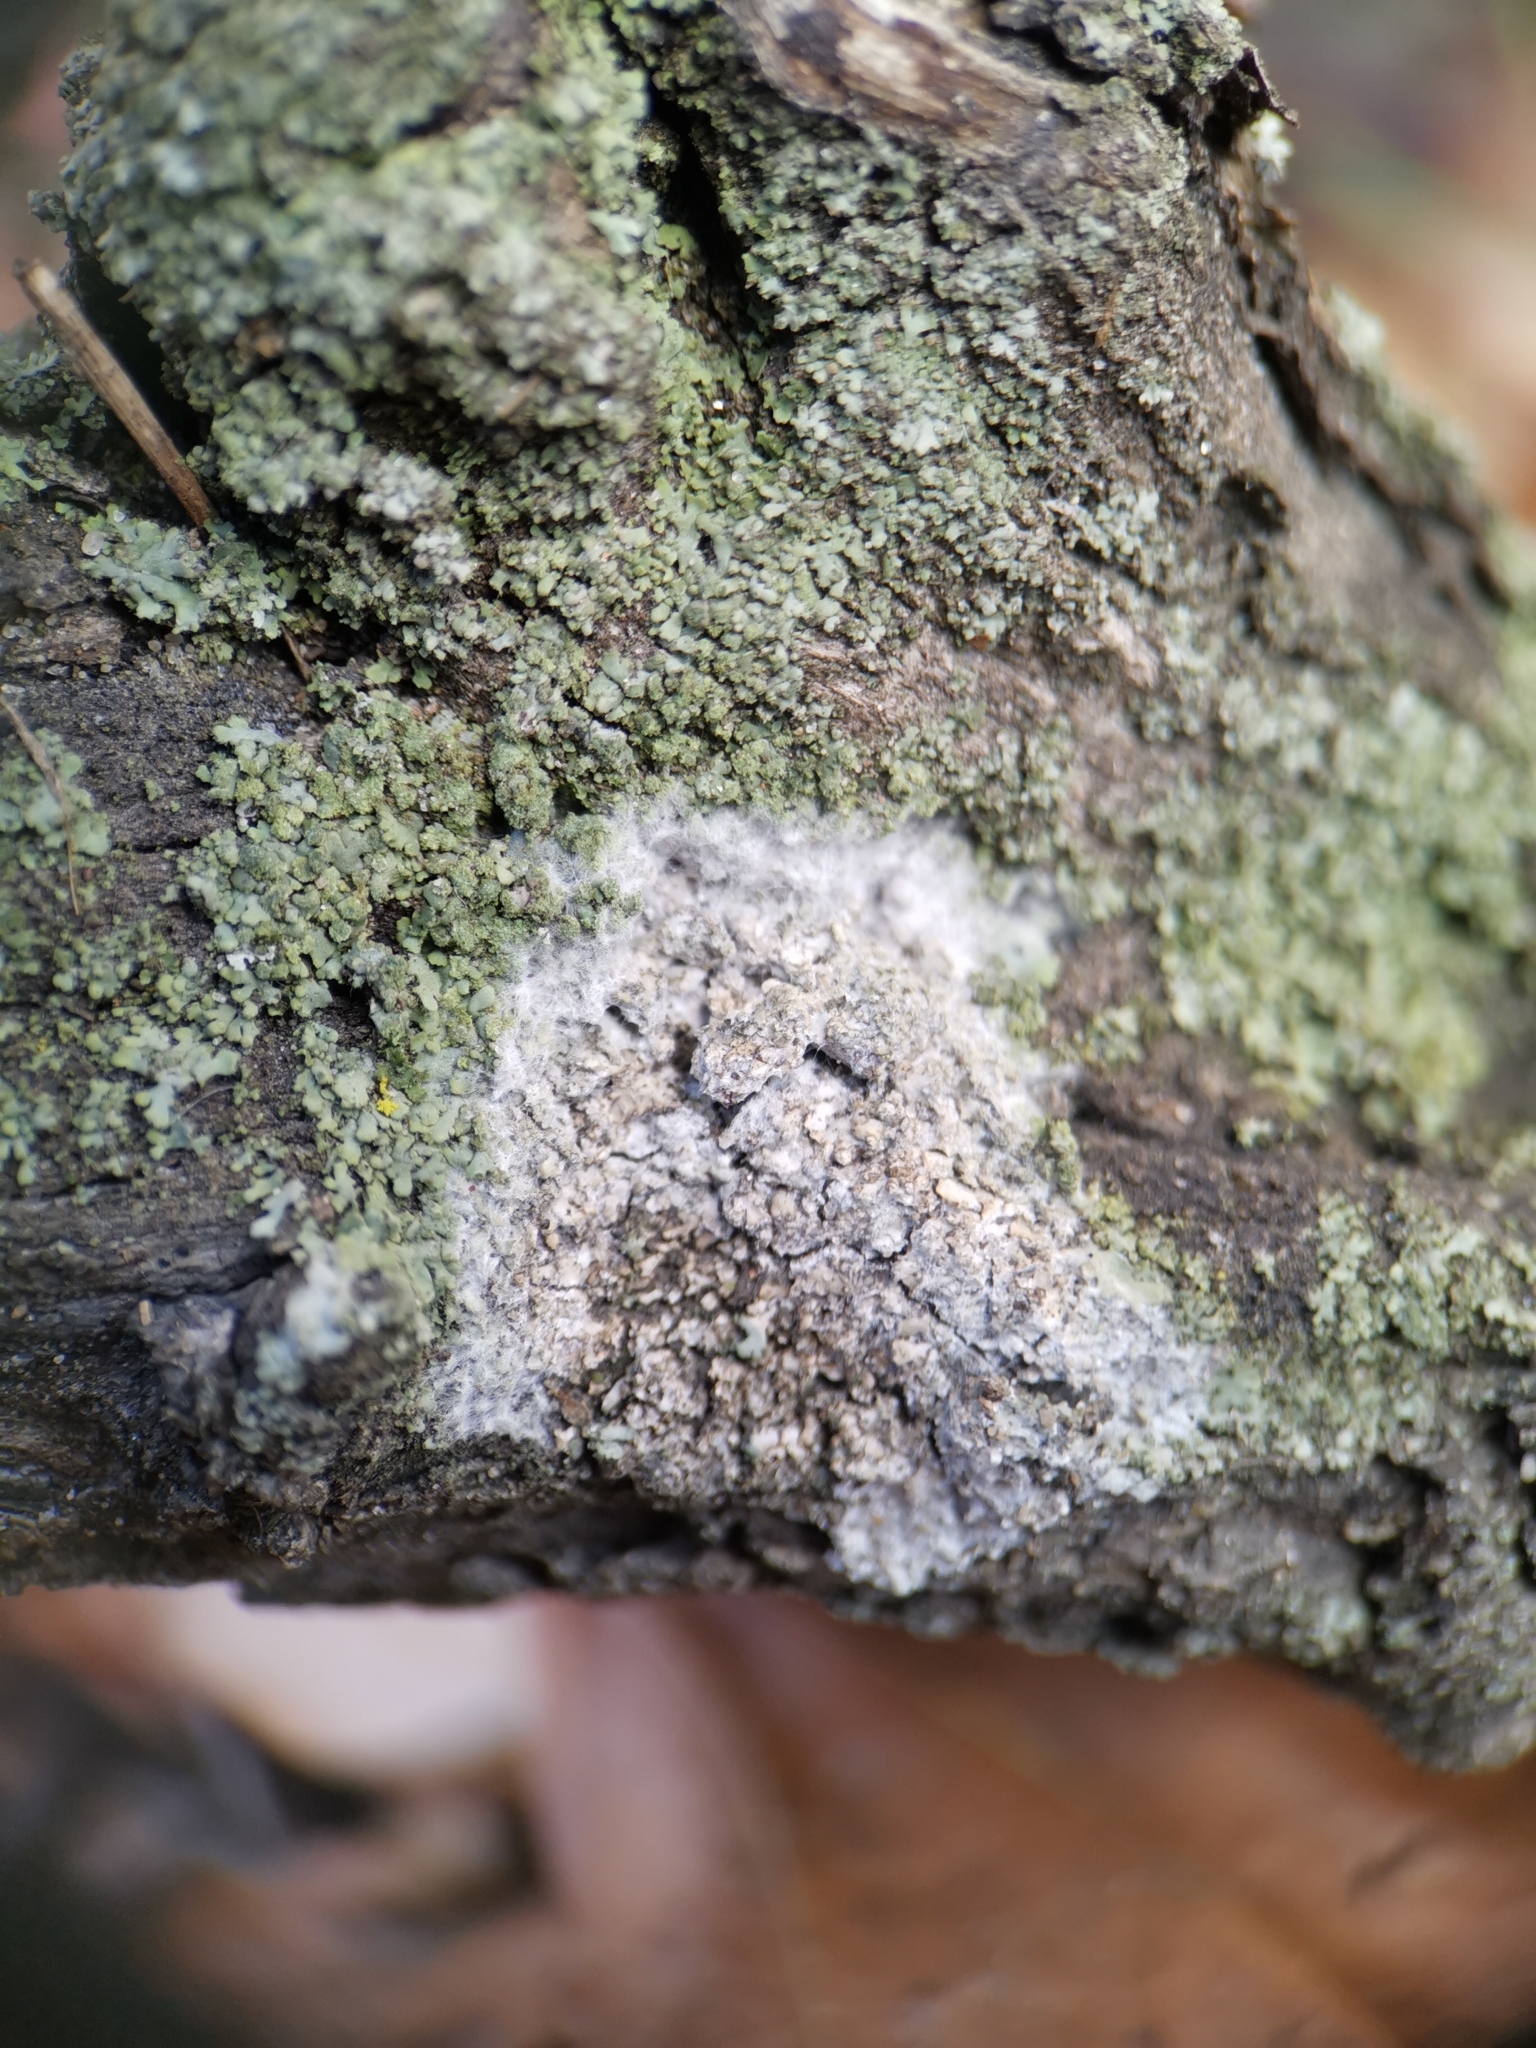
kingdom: Fungi
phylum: Basidiomycota
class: Agaricomycetes
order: Atheliales
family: Atheliaceae
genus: Athelia
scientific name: Athelia arachnoidea
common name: Candelabra duster
